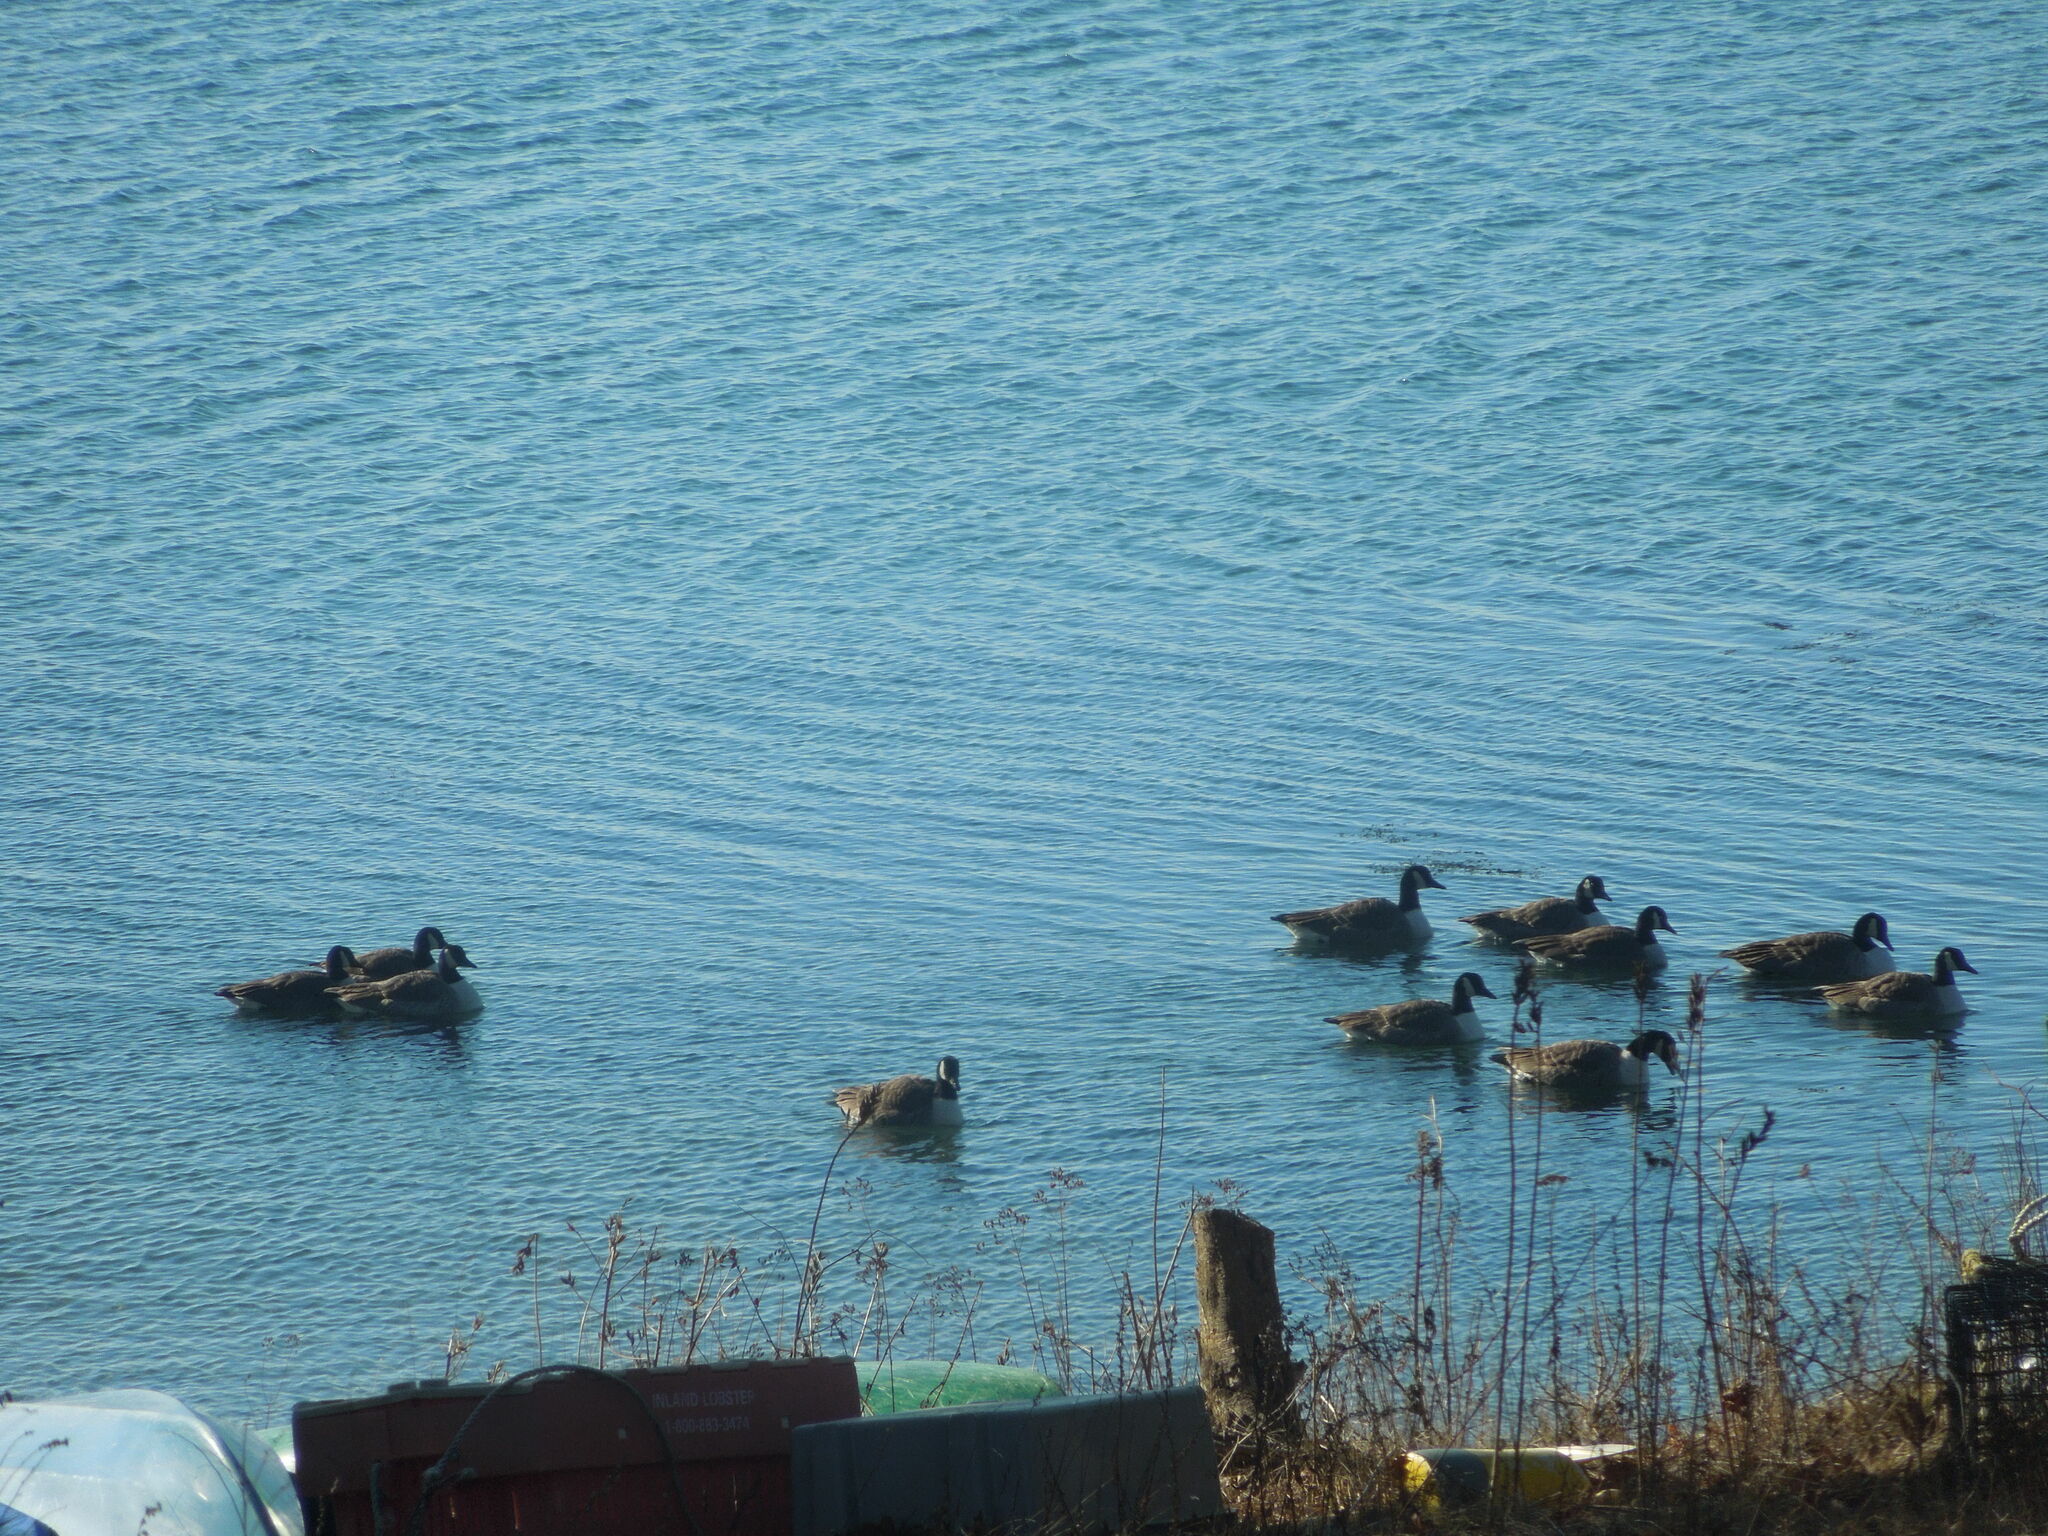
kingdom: Animalia
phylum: Chordata
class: Aves
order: Anseriformes
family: Anatidae
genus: Branta
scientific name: Branta canadensis
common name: Canada goose
